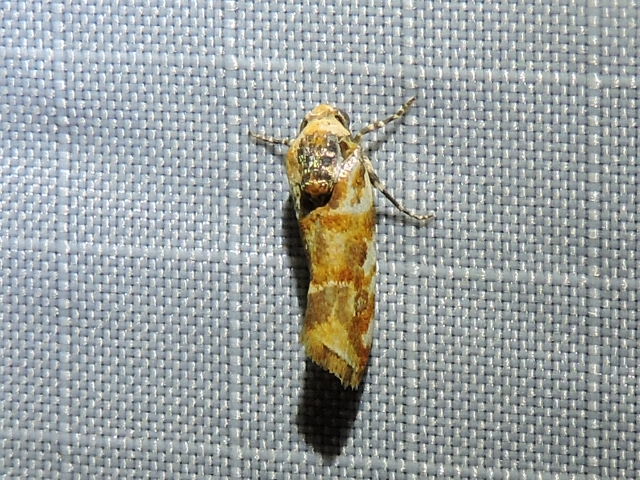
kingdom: Animalia
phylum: Arthropoda
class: Insecta
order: Lepidoptera
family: Noctuidae
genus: Spragueia
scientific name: Spragueia jaguaralis
